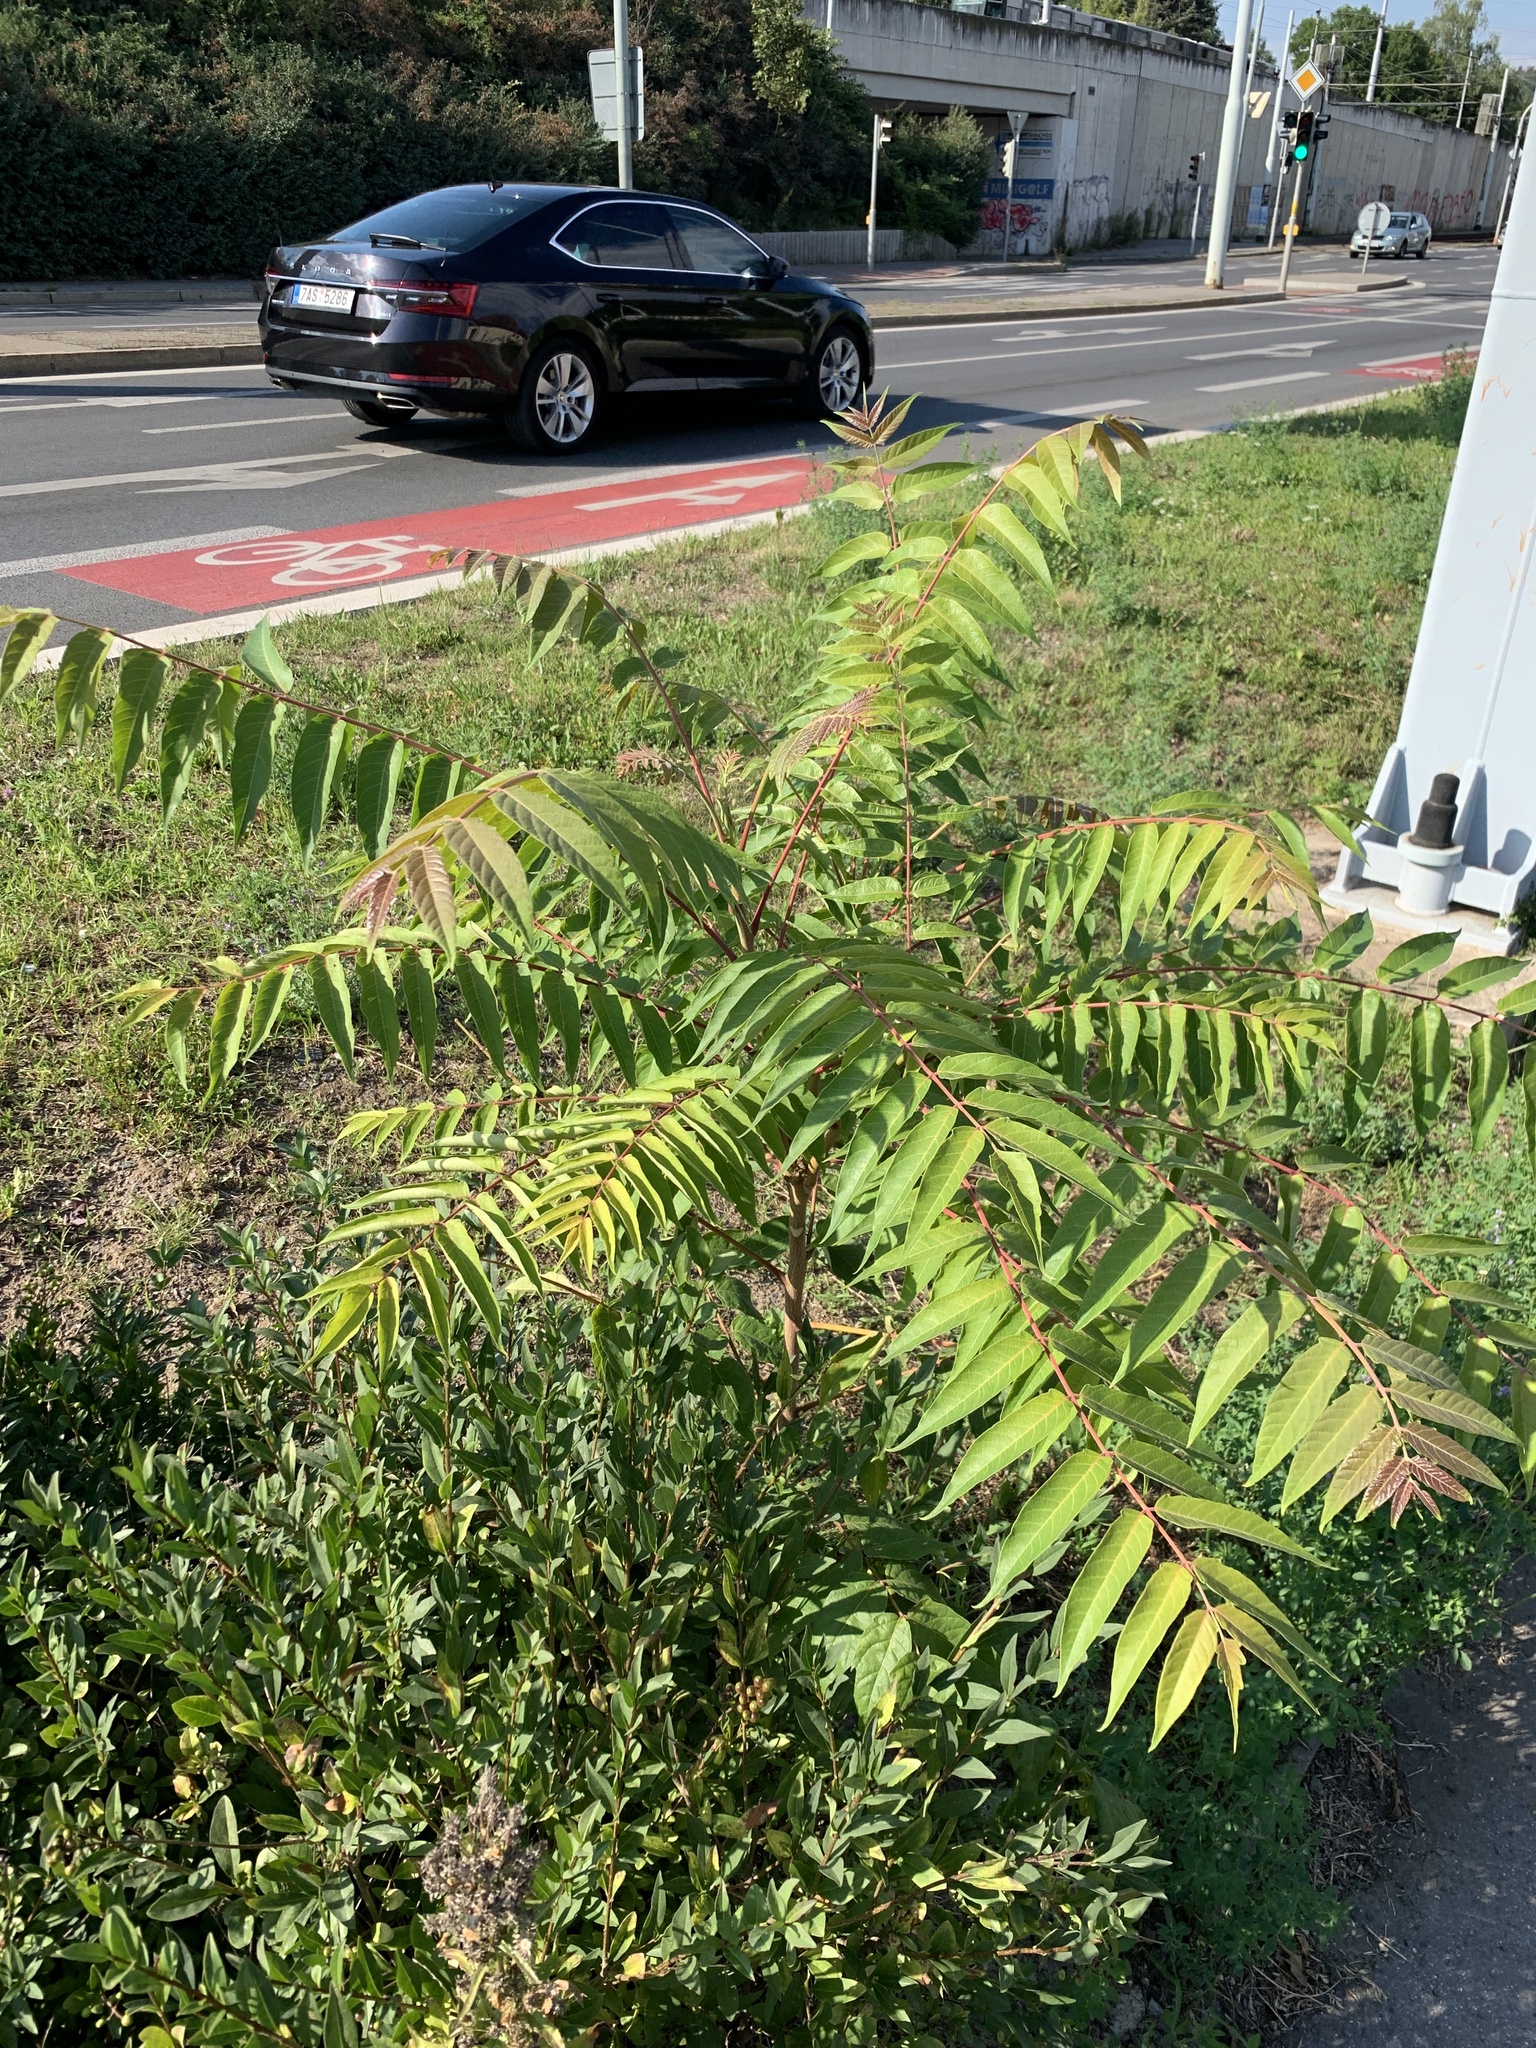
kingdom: Plantae
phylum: Tracheophyta
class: Magnoliopsida
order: Sapindales
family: Simaroubaceae
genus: Ailanthus
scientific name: Ailanthus altissima
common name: Tree-of-heaven
